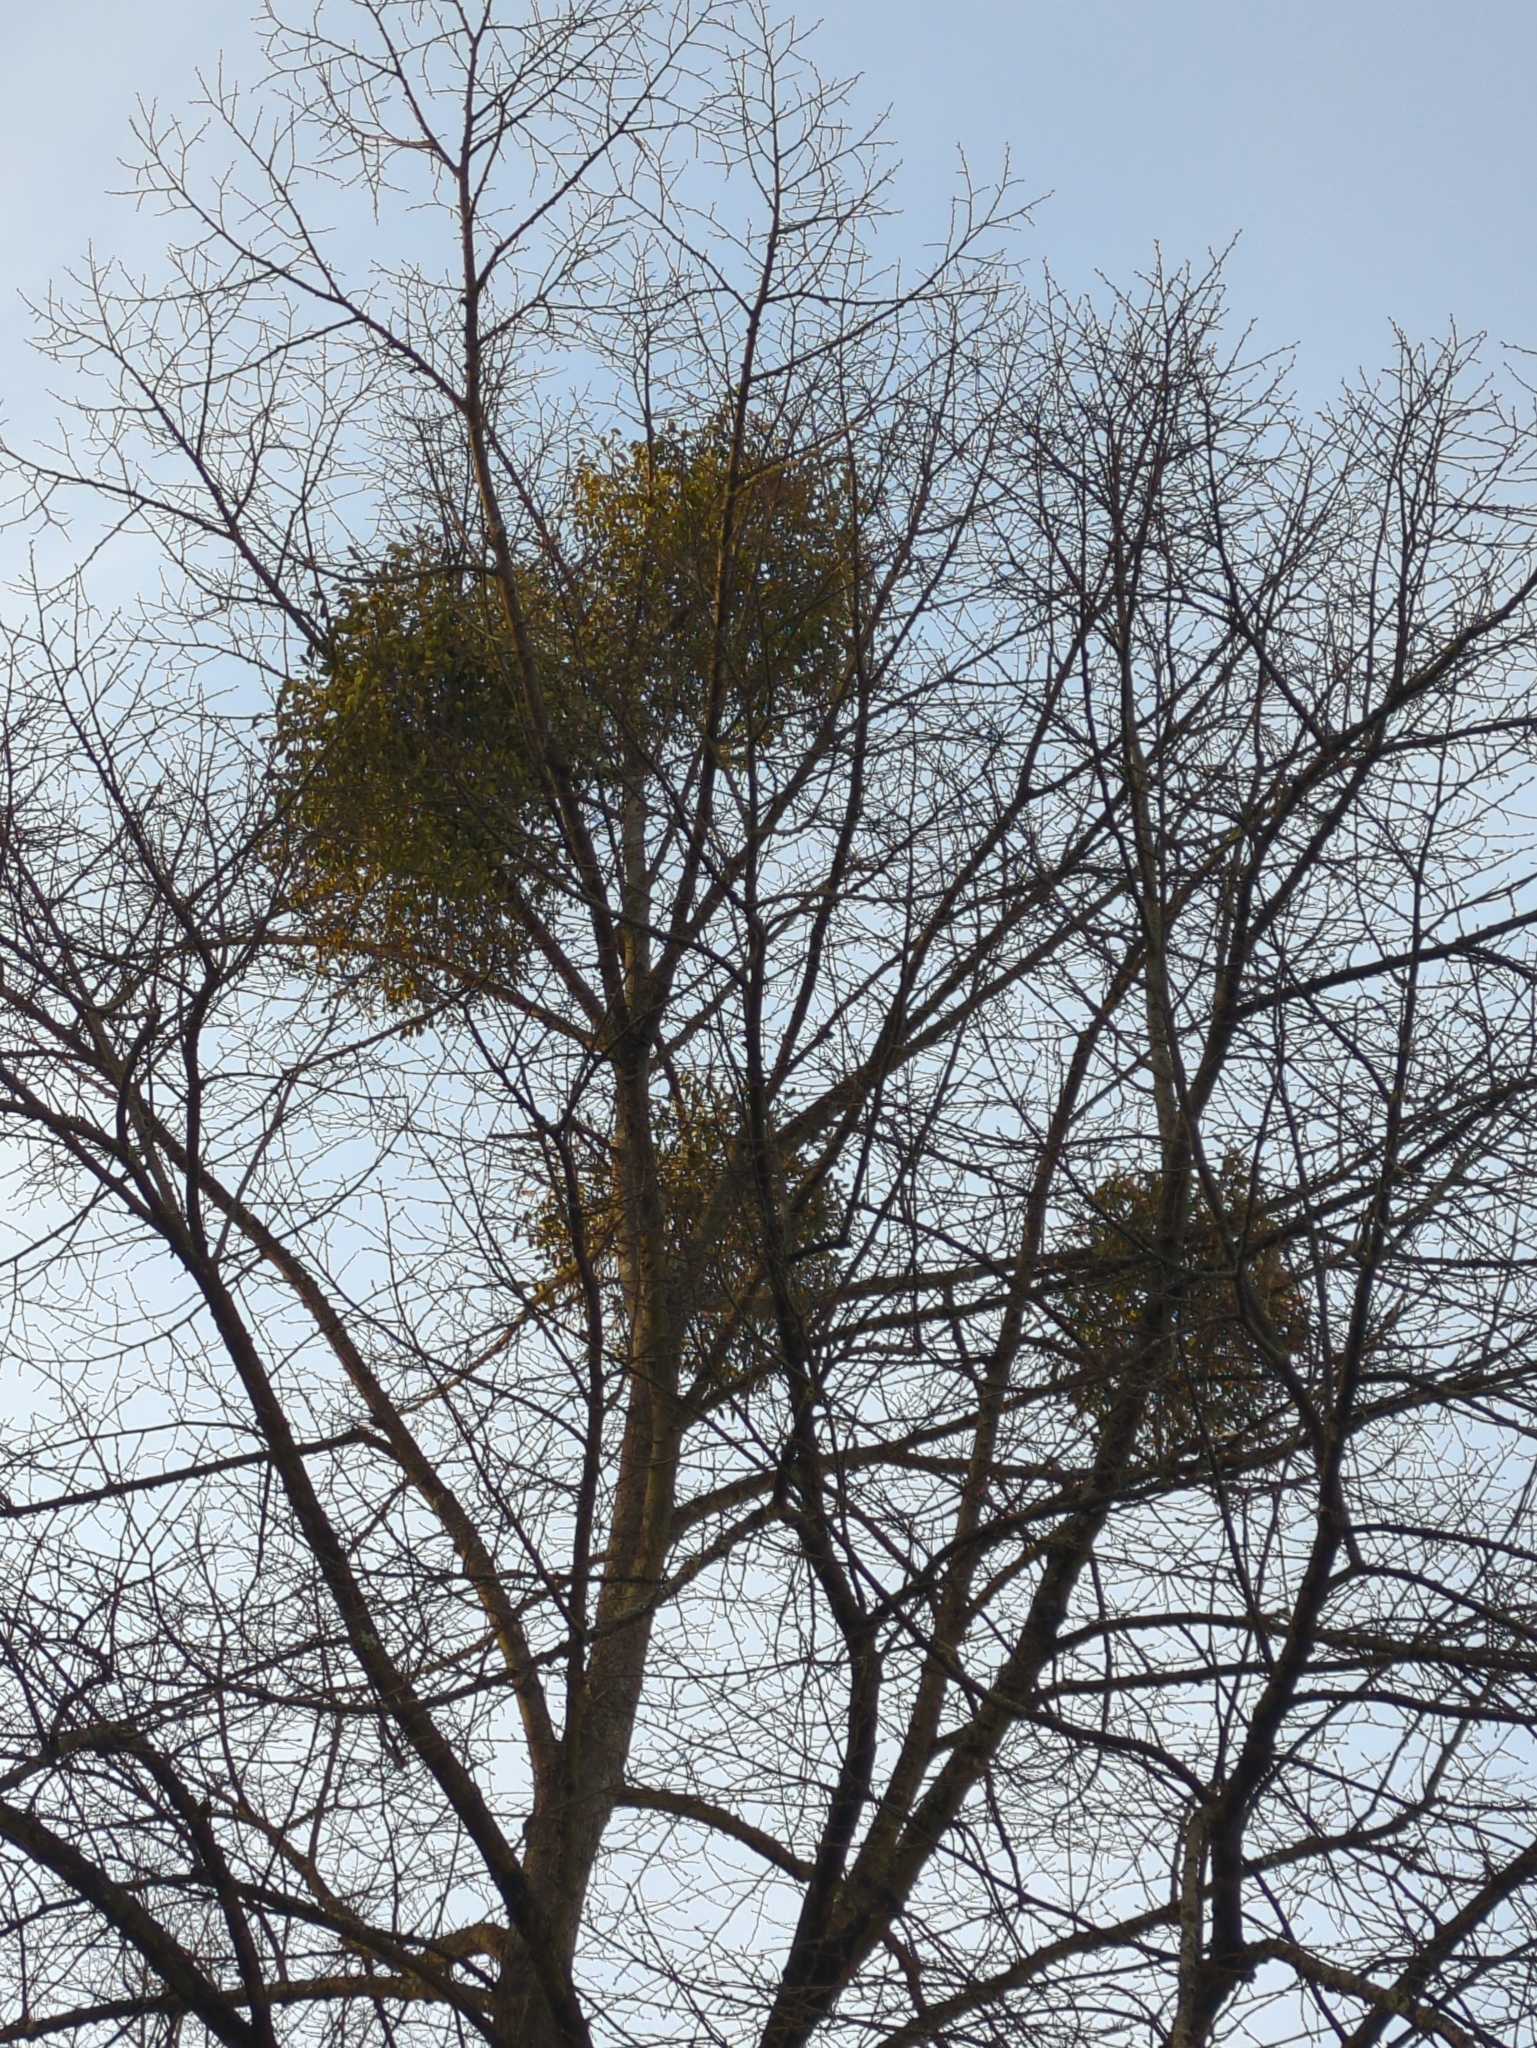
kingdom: Plantae
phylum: Tracheophyta
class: Magnoliopsida
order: Santalales
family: Viscaceae
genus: Viscum
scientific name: Viscum album
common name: Mistletoe
